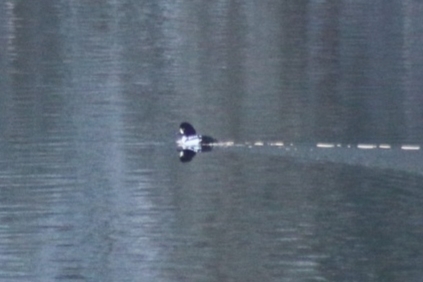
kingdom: Animalia
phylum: Chordata
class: Aves
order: Anseriformes
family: Anatidae
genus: Bucephala
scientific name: Bucephala islandica
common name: Barrow's goldeneye
